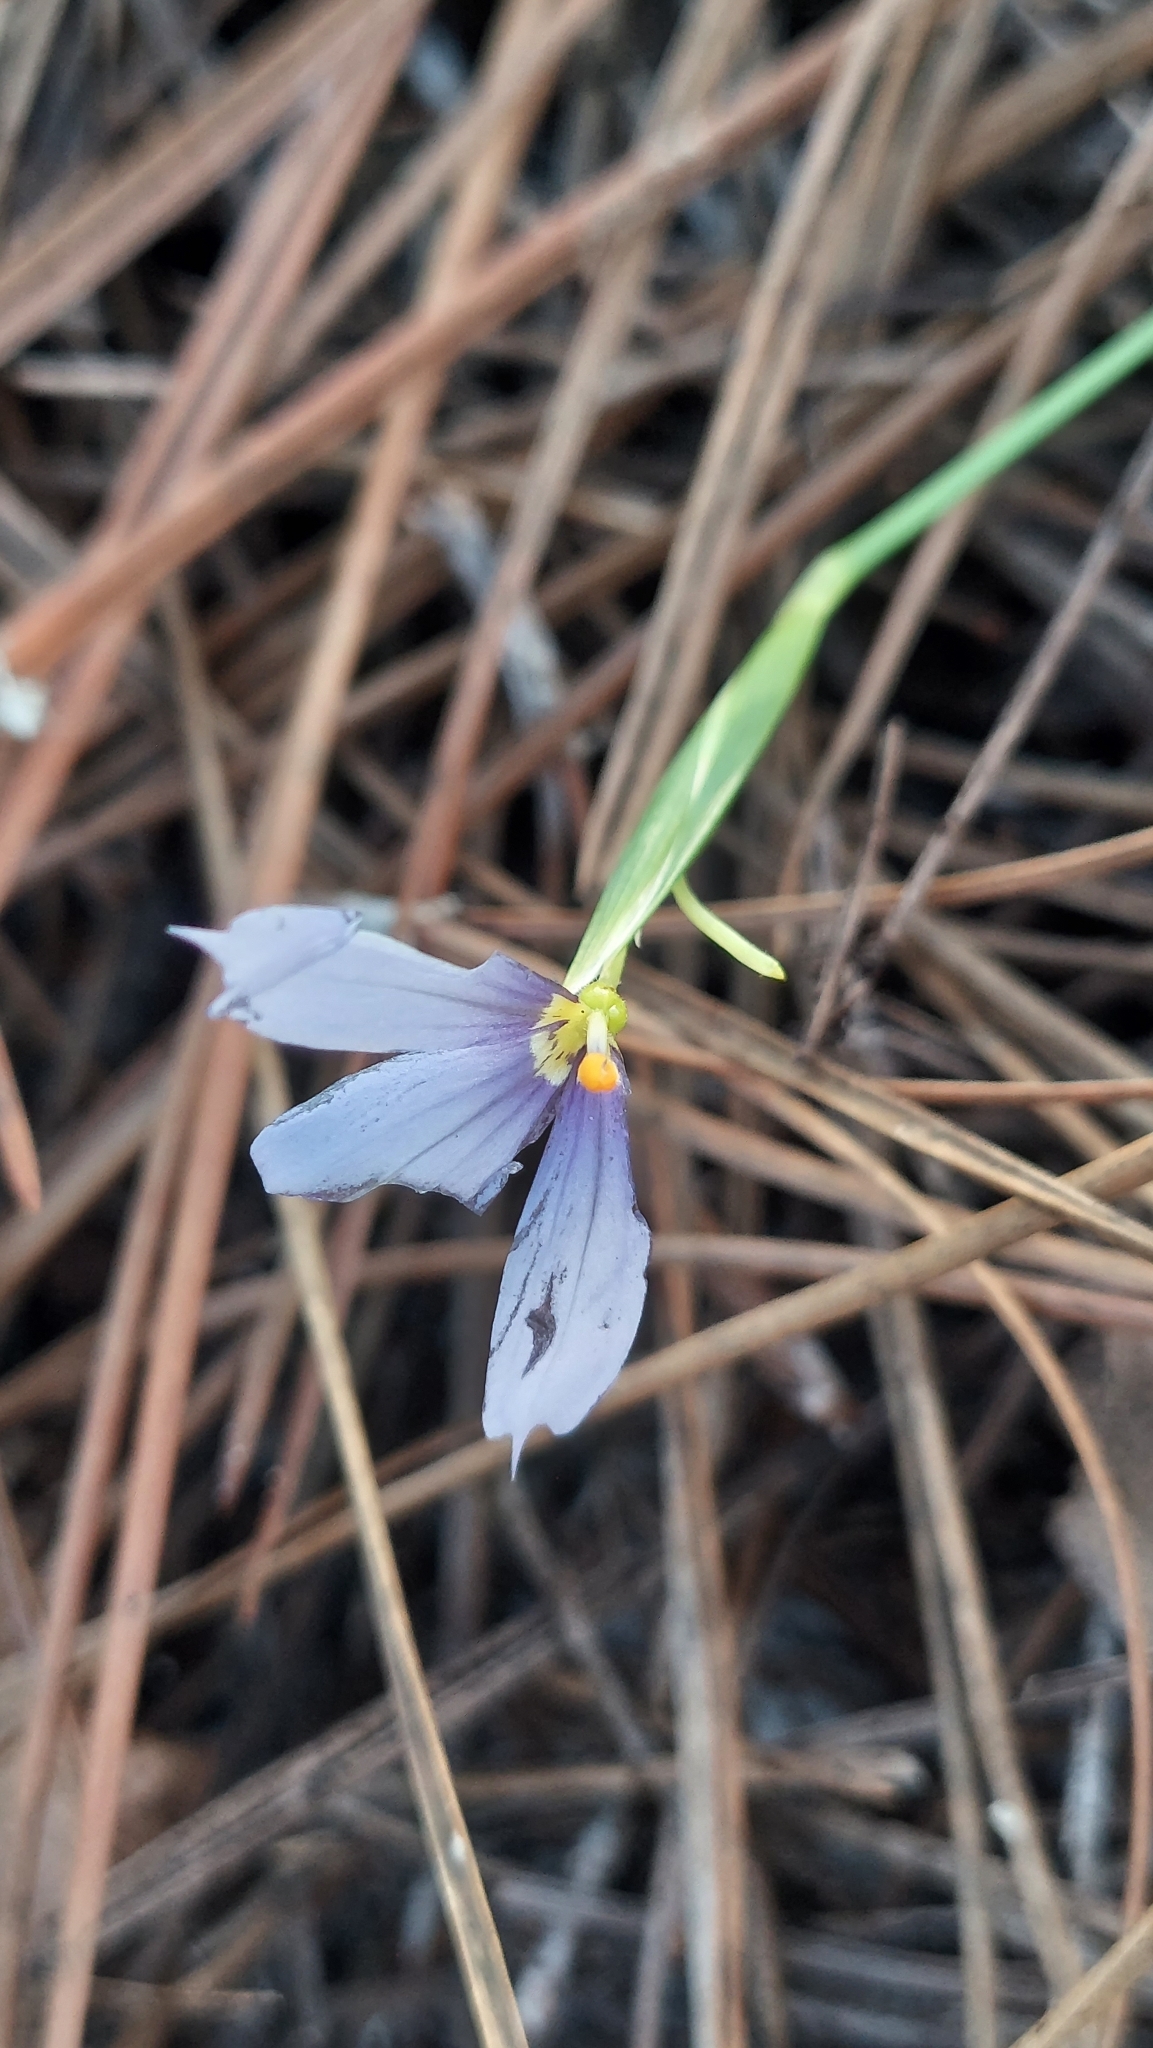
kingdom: Plantae
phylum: Tracheophyta
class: Liliopsida
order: Asparagales
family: Iridaceae
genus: Sisyrinchium
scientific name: Sisyrinchium xerophyllum
